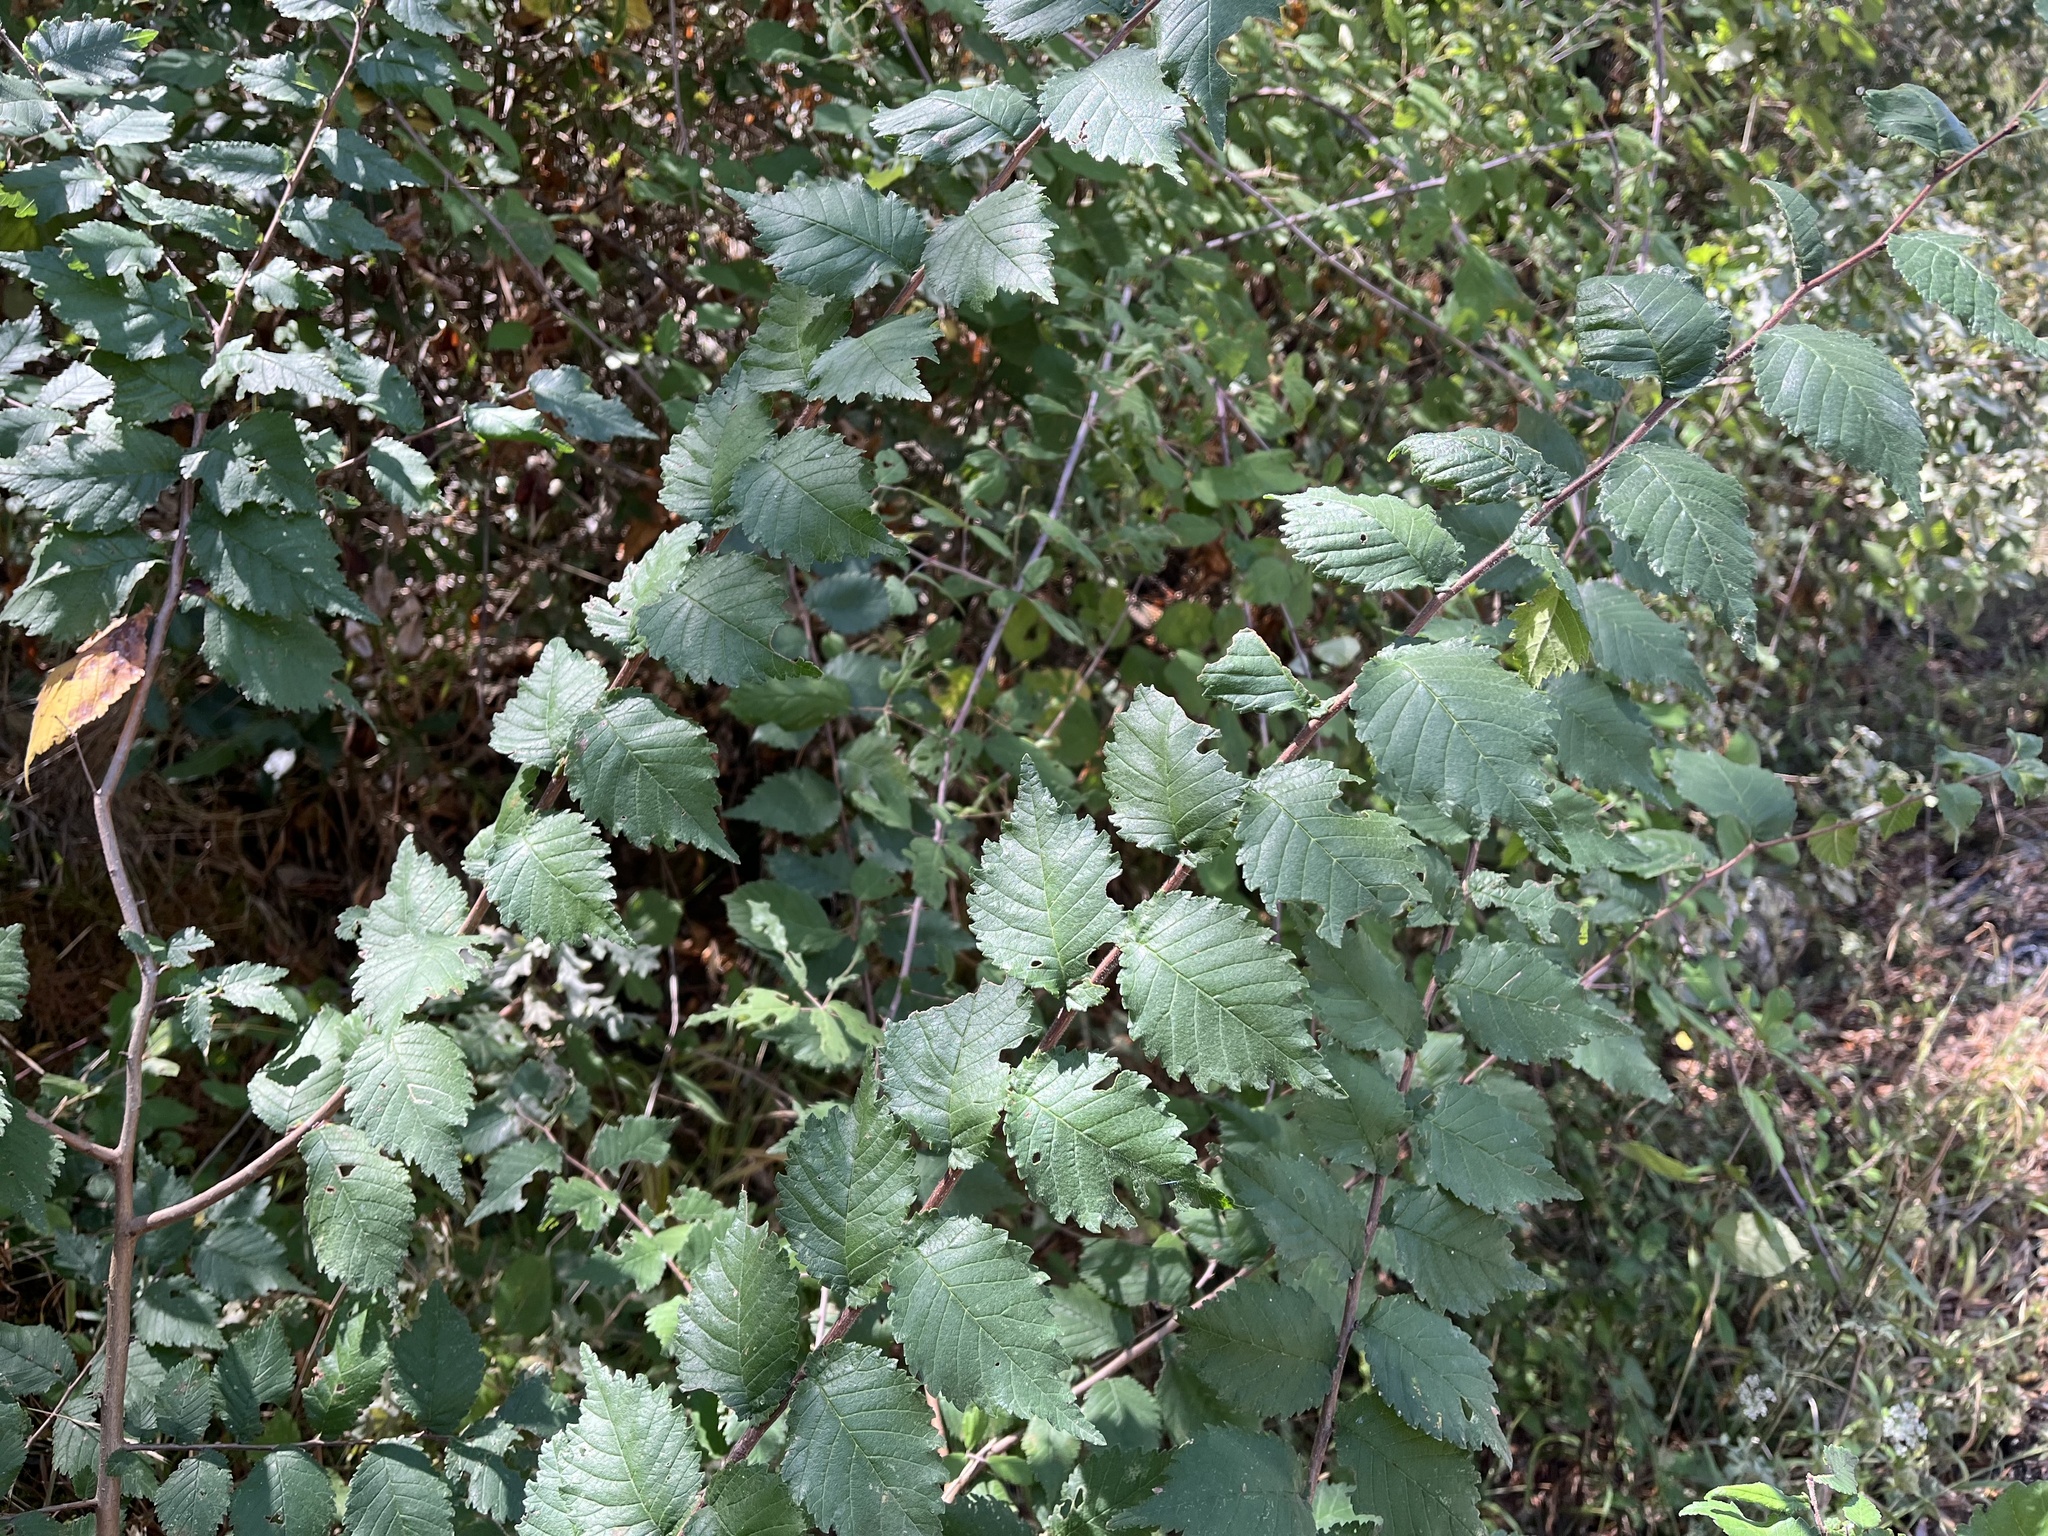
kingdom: Plantae
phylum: Tracheophyta
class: Magnoliopsida
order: Rosales
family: Ulmaceae
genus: Ulmus
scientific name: Ulmus minor
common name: Small-leaved elm
